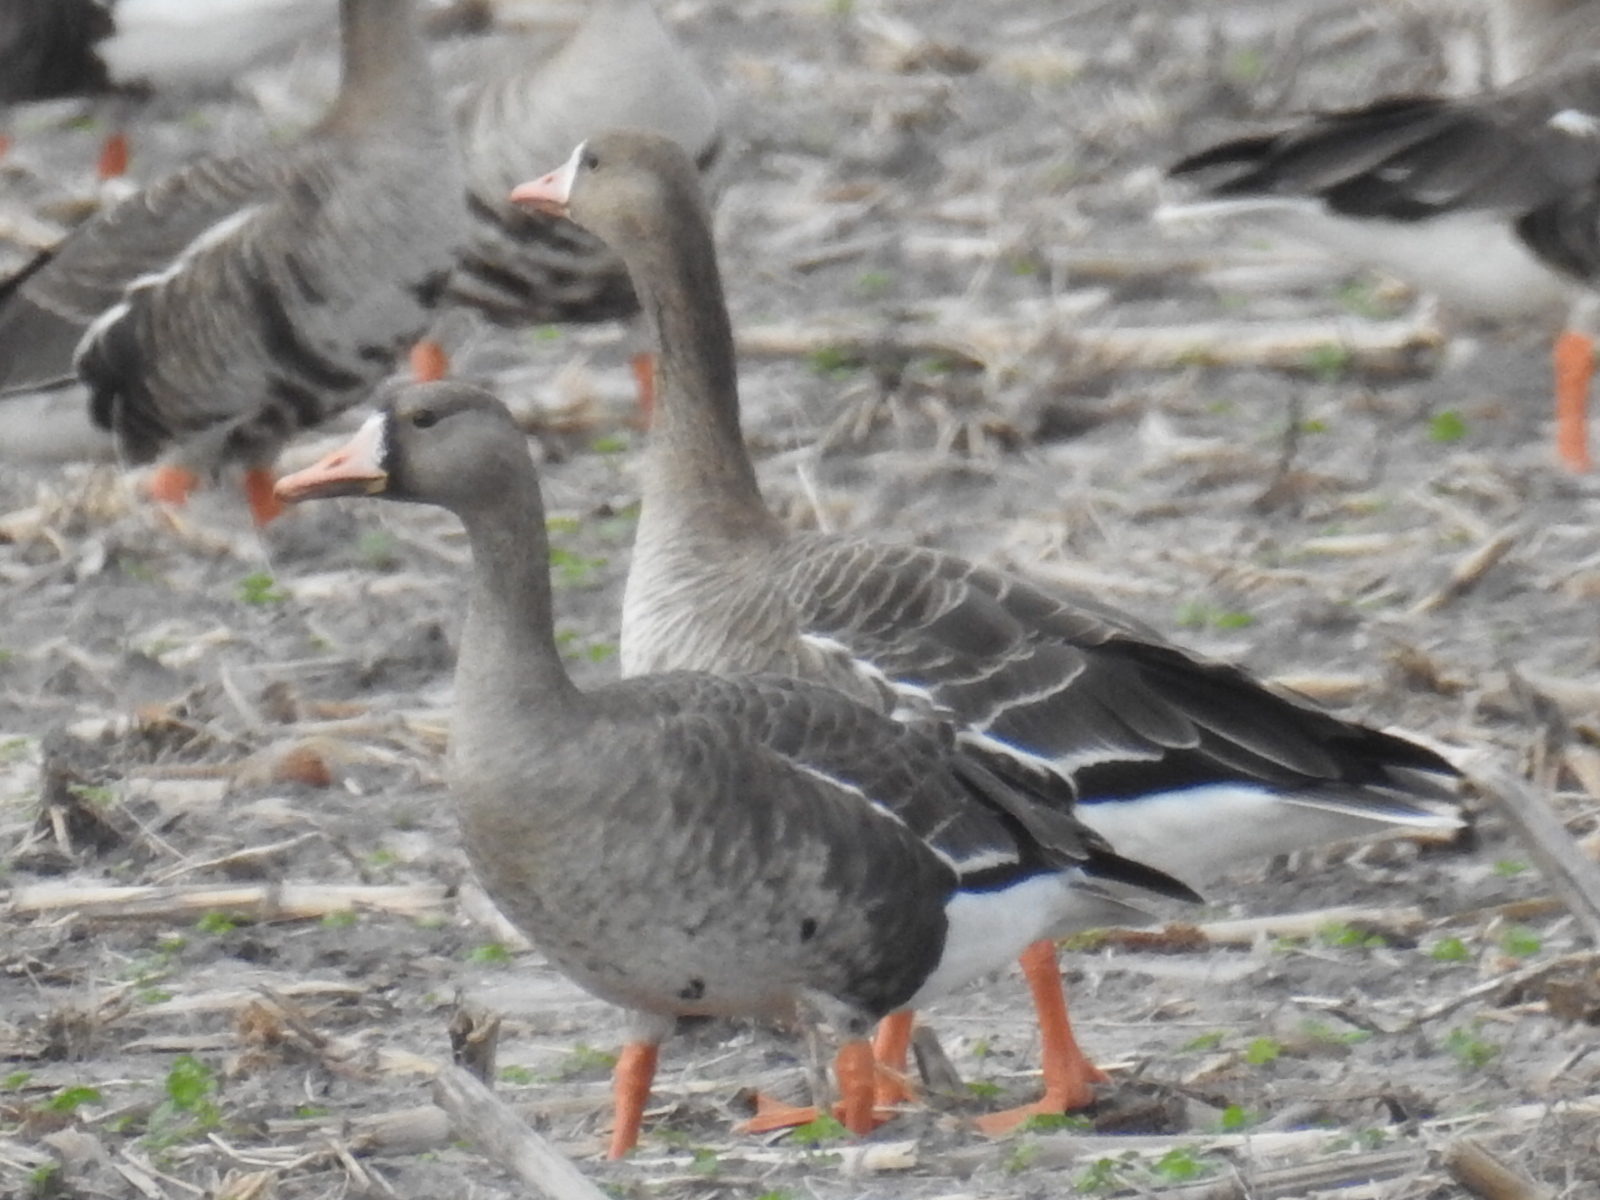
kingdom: Animalia
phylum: Chordata
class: Aves
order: Anseriformes
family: Anatidae
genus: Anser
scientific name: Anser albifrons
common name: Greater white-fronted goose
